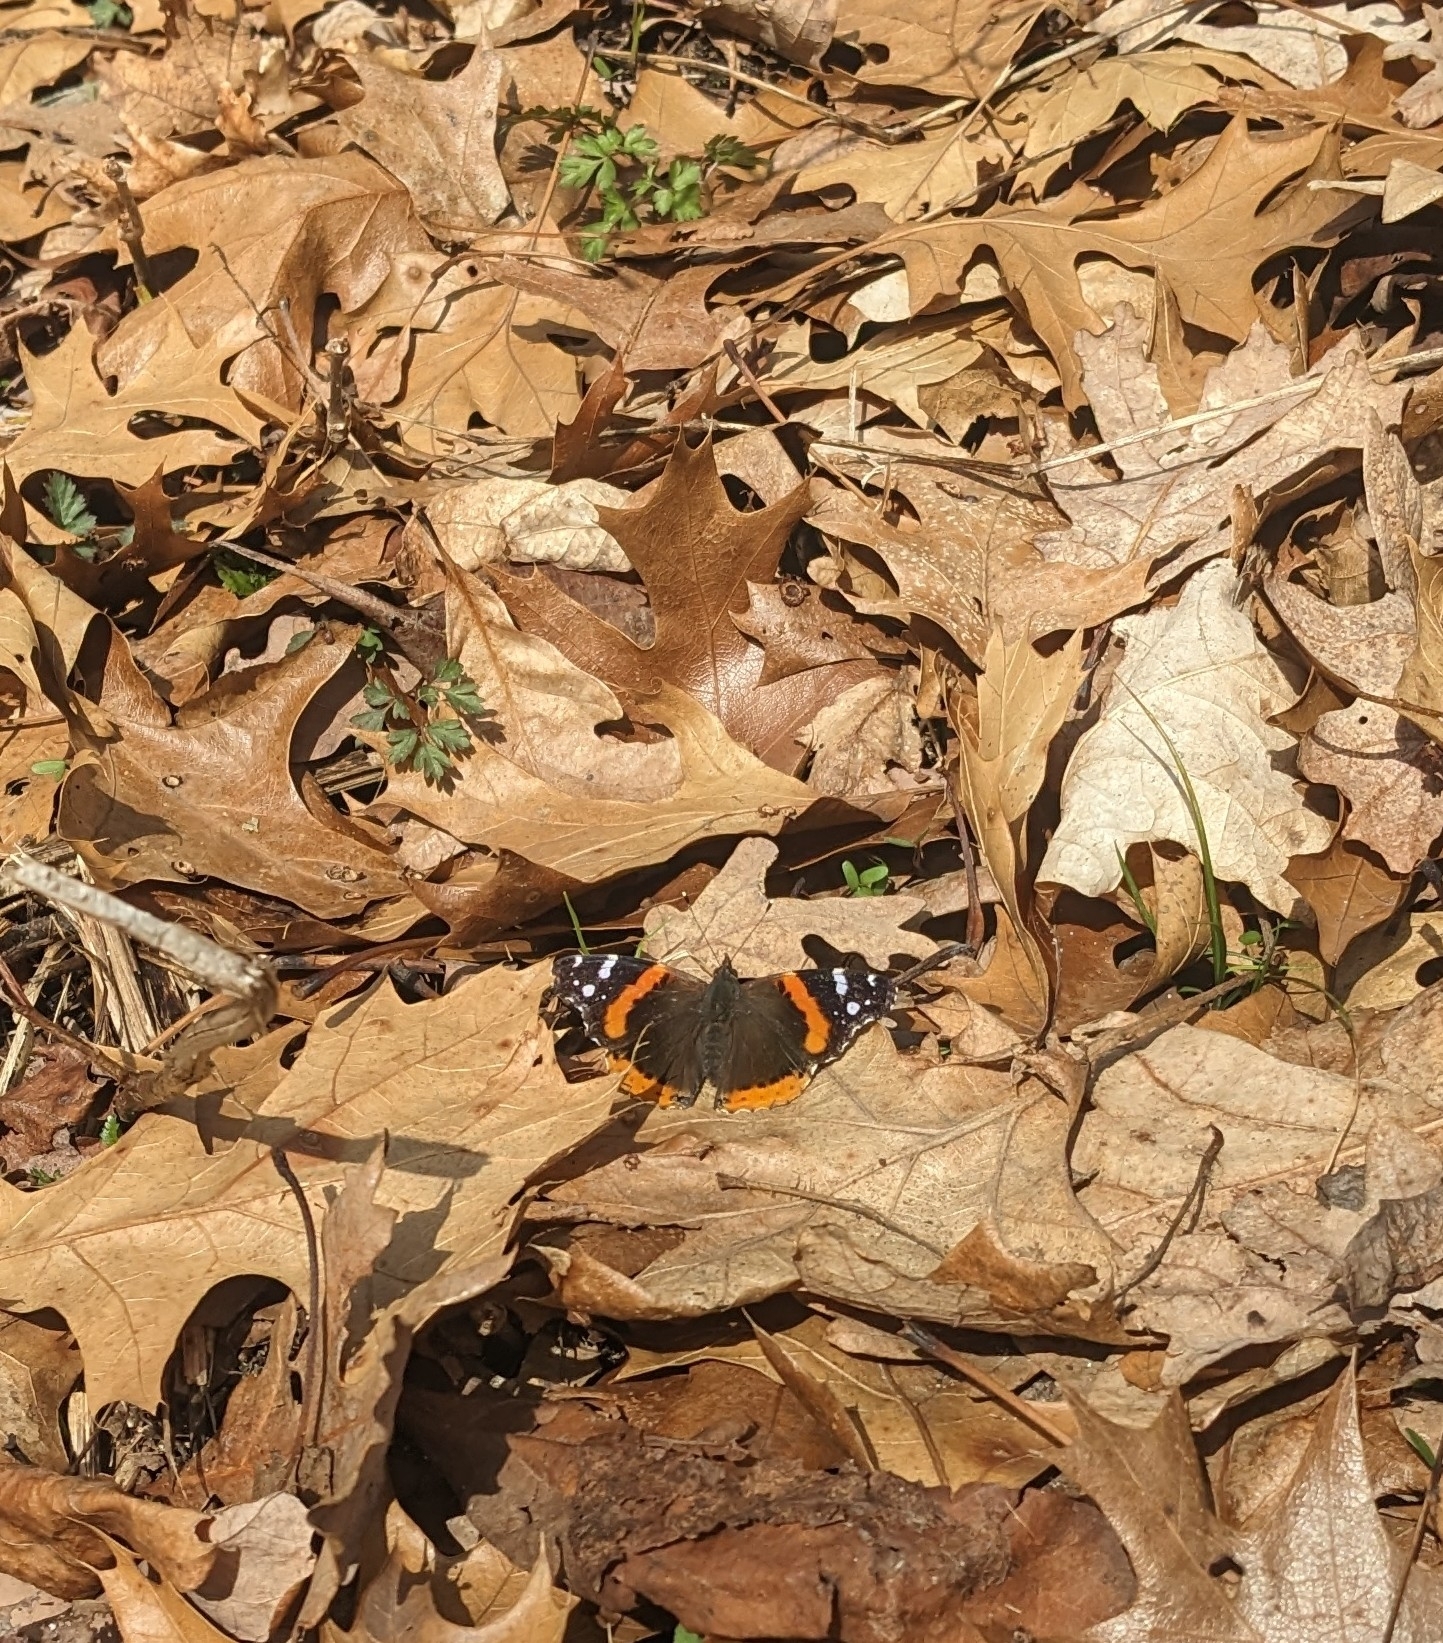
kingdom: Animalia
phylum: Arthropoda
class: Insecta
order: Lepidoptera
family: Nymphalidae
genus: Vanessa
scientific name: Vanessa atalanta
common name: Red admiral
